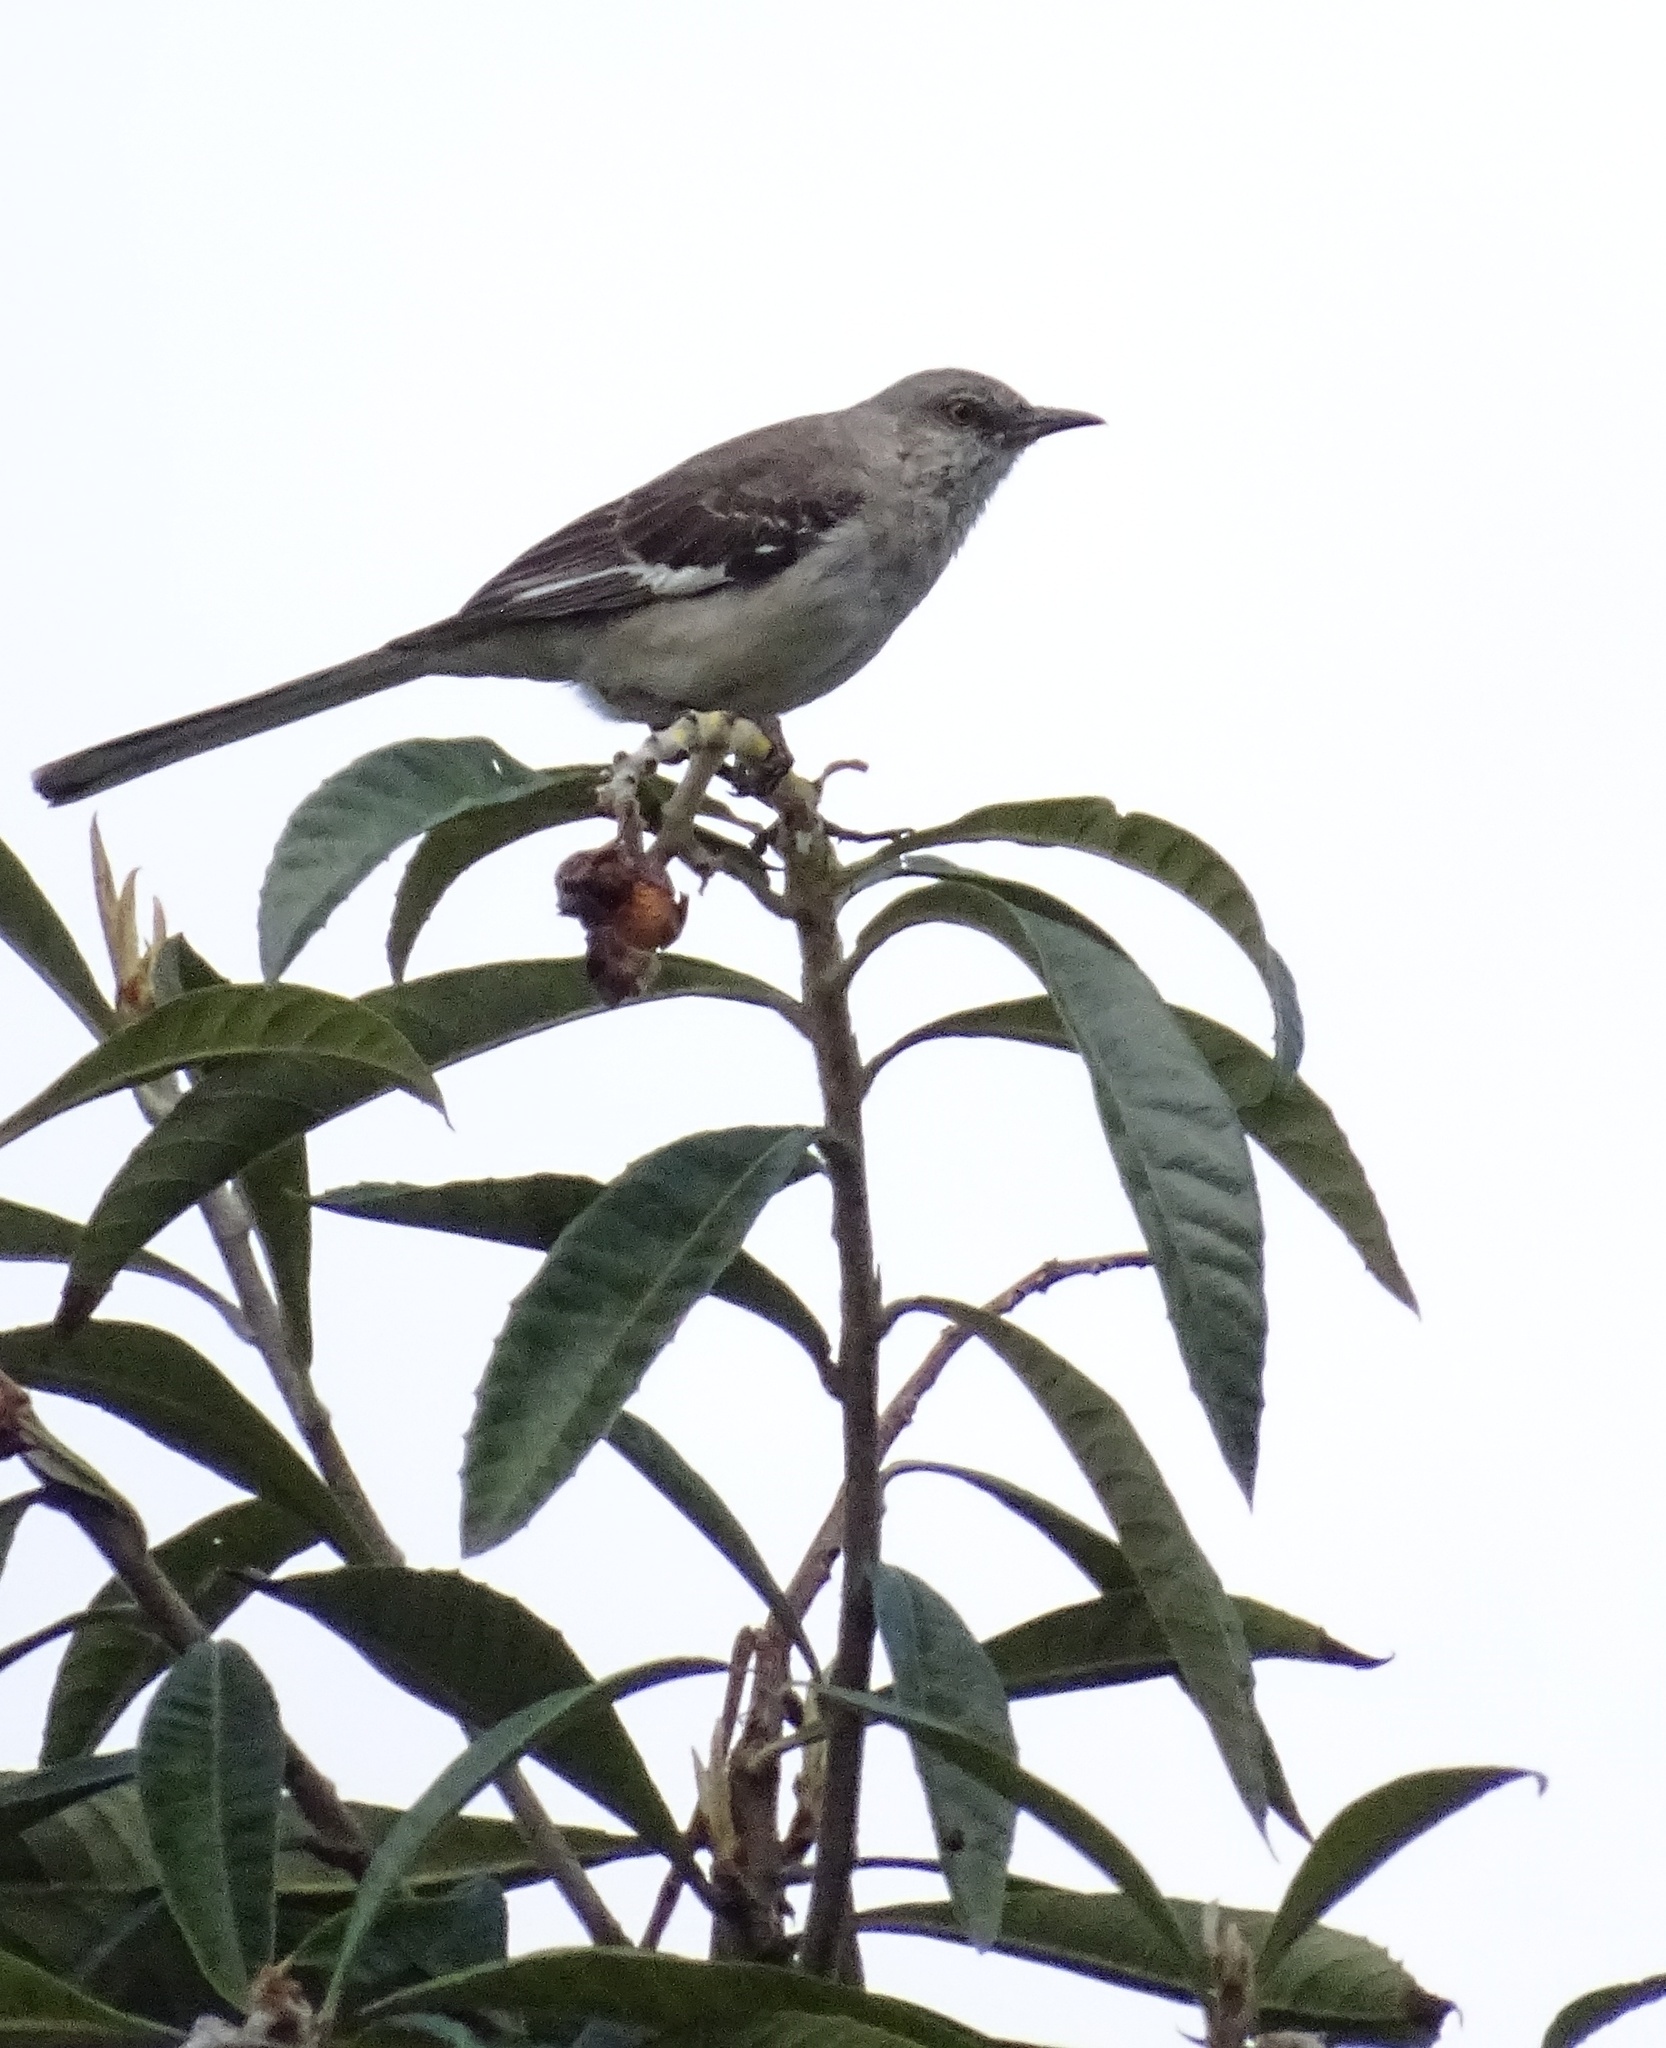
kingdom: Animalia
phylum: Chordata
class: Aves
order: Passeriformes
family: Mimidae
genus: Mimus
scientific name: Mimus polyglottos
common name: Northern mockingbird
